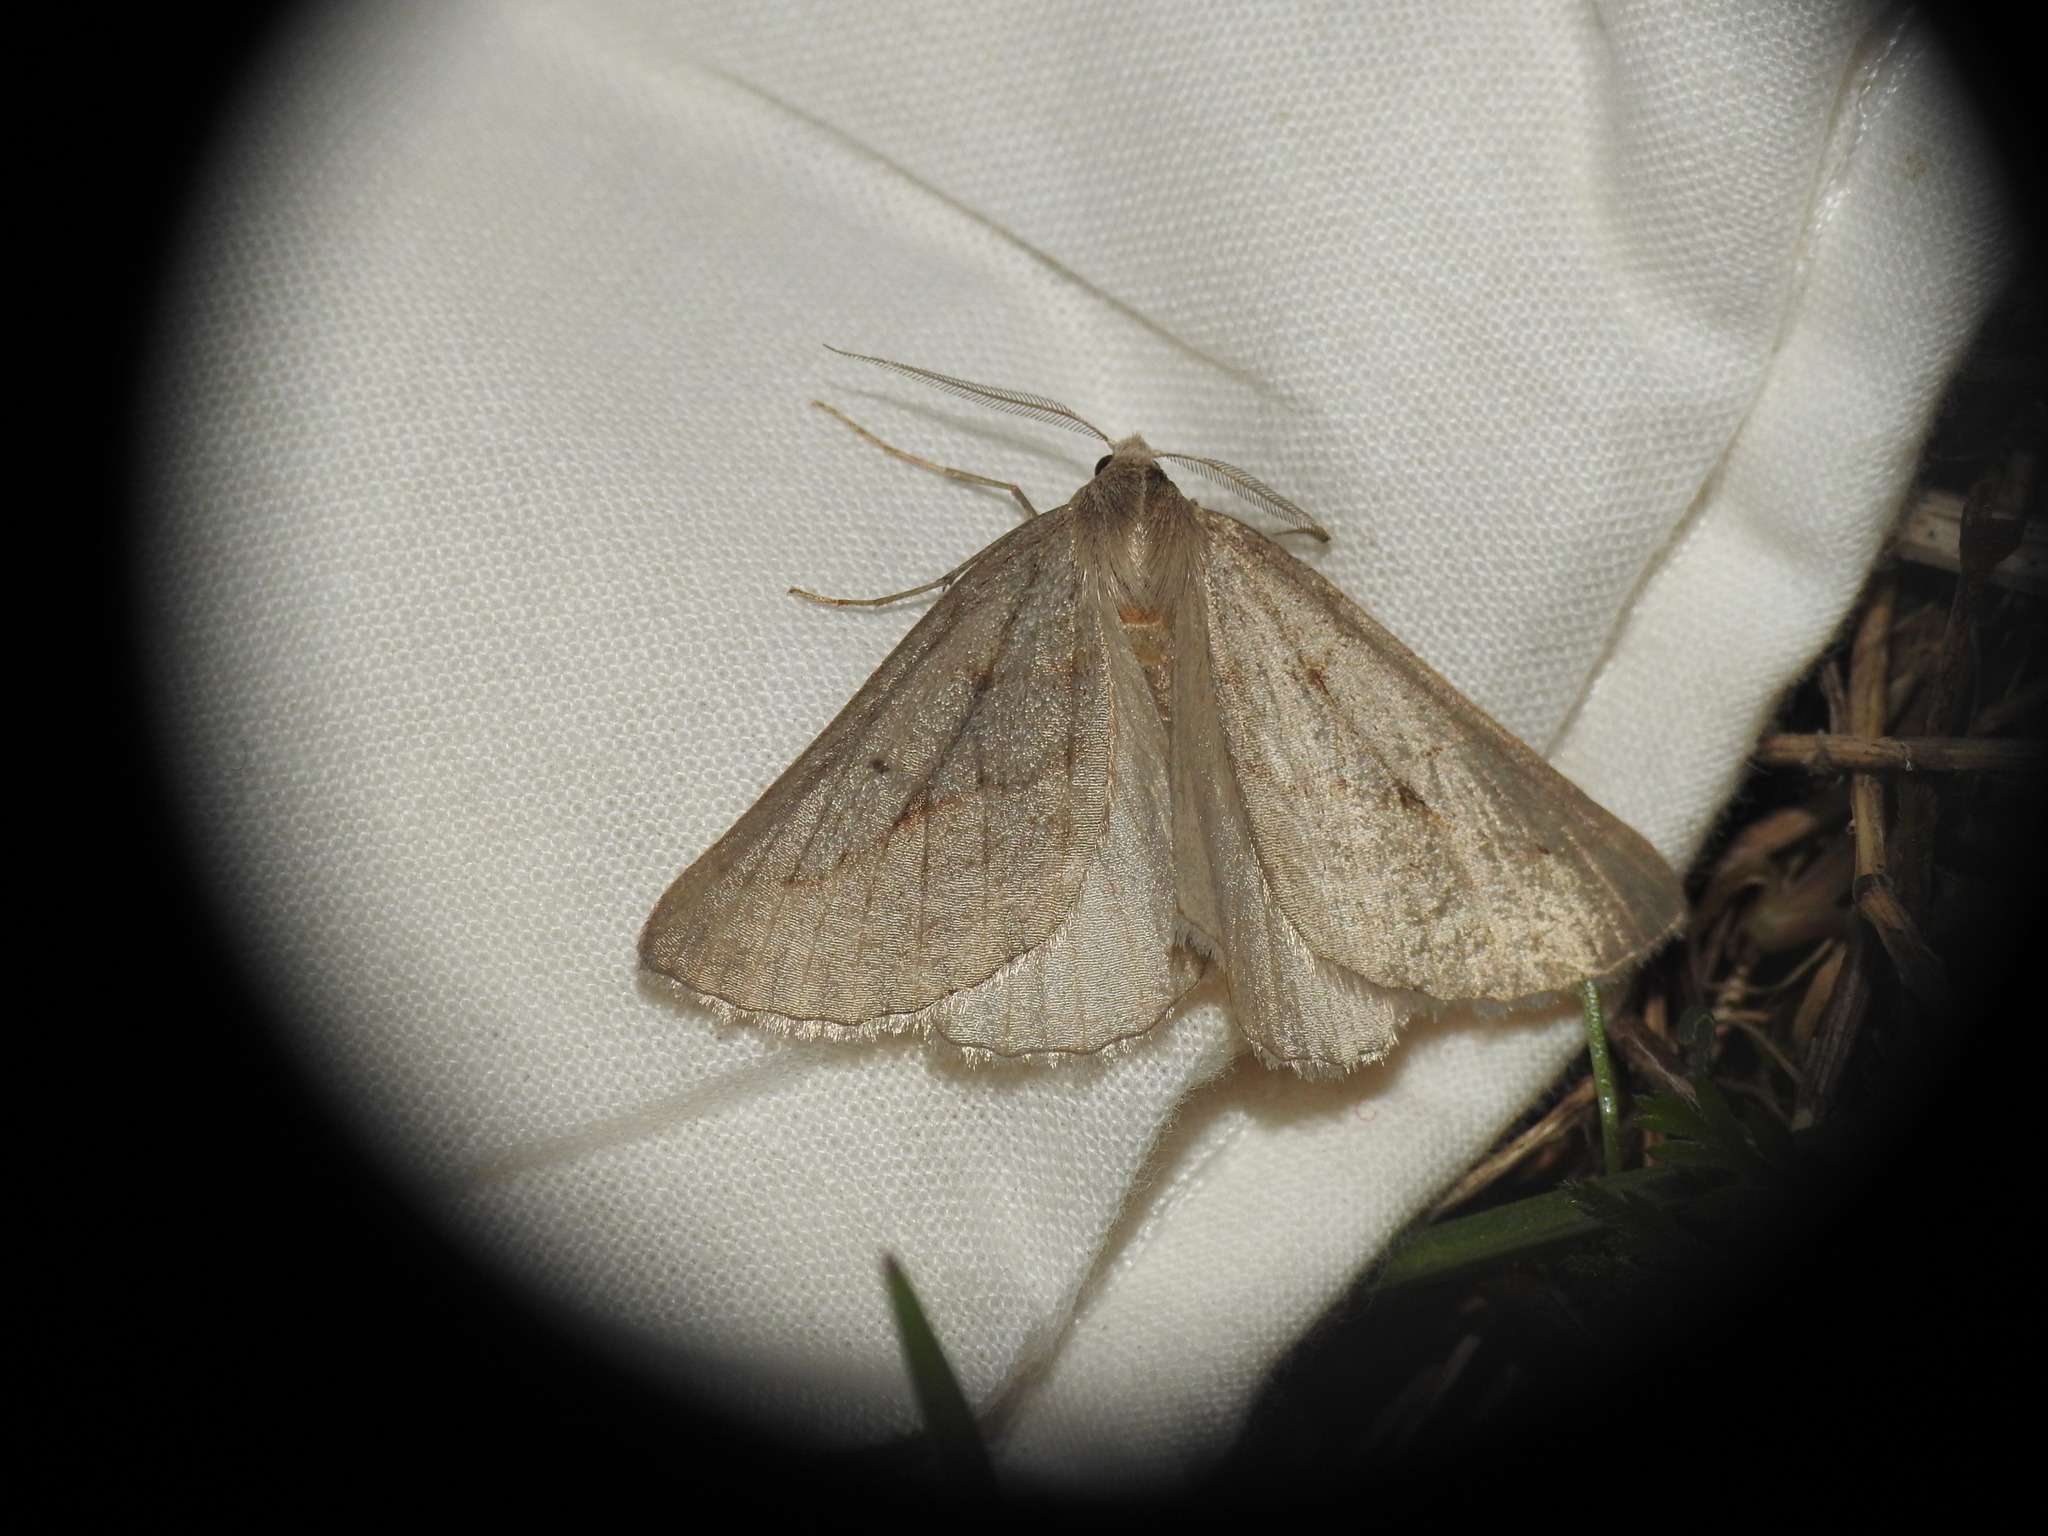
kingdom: Animalia
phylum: Arthropoda
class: Insecta
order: Lepidoptera
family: Geometridae
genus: Chemerina
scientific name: Chemerina caliginearia
